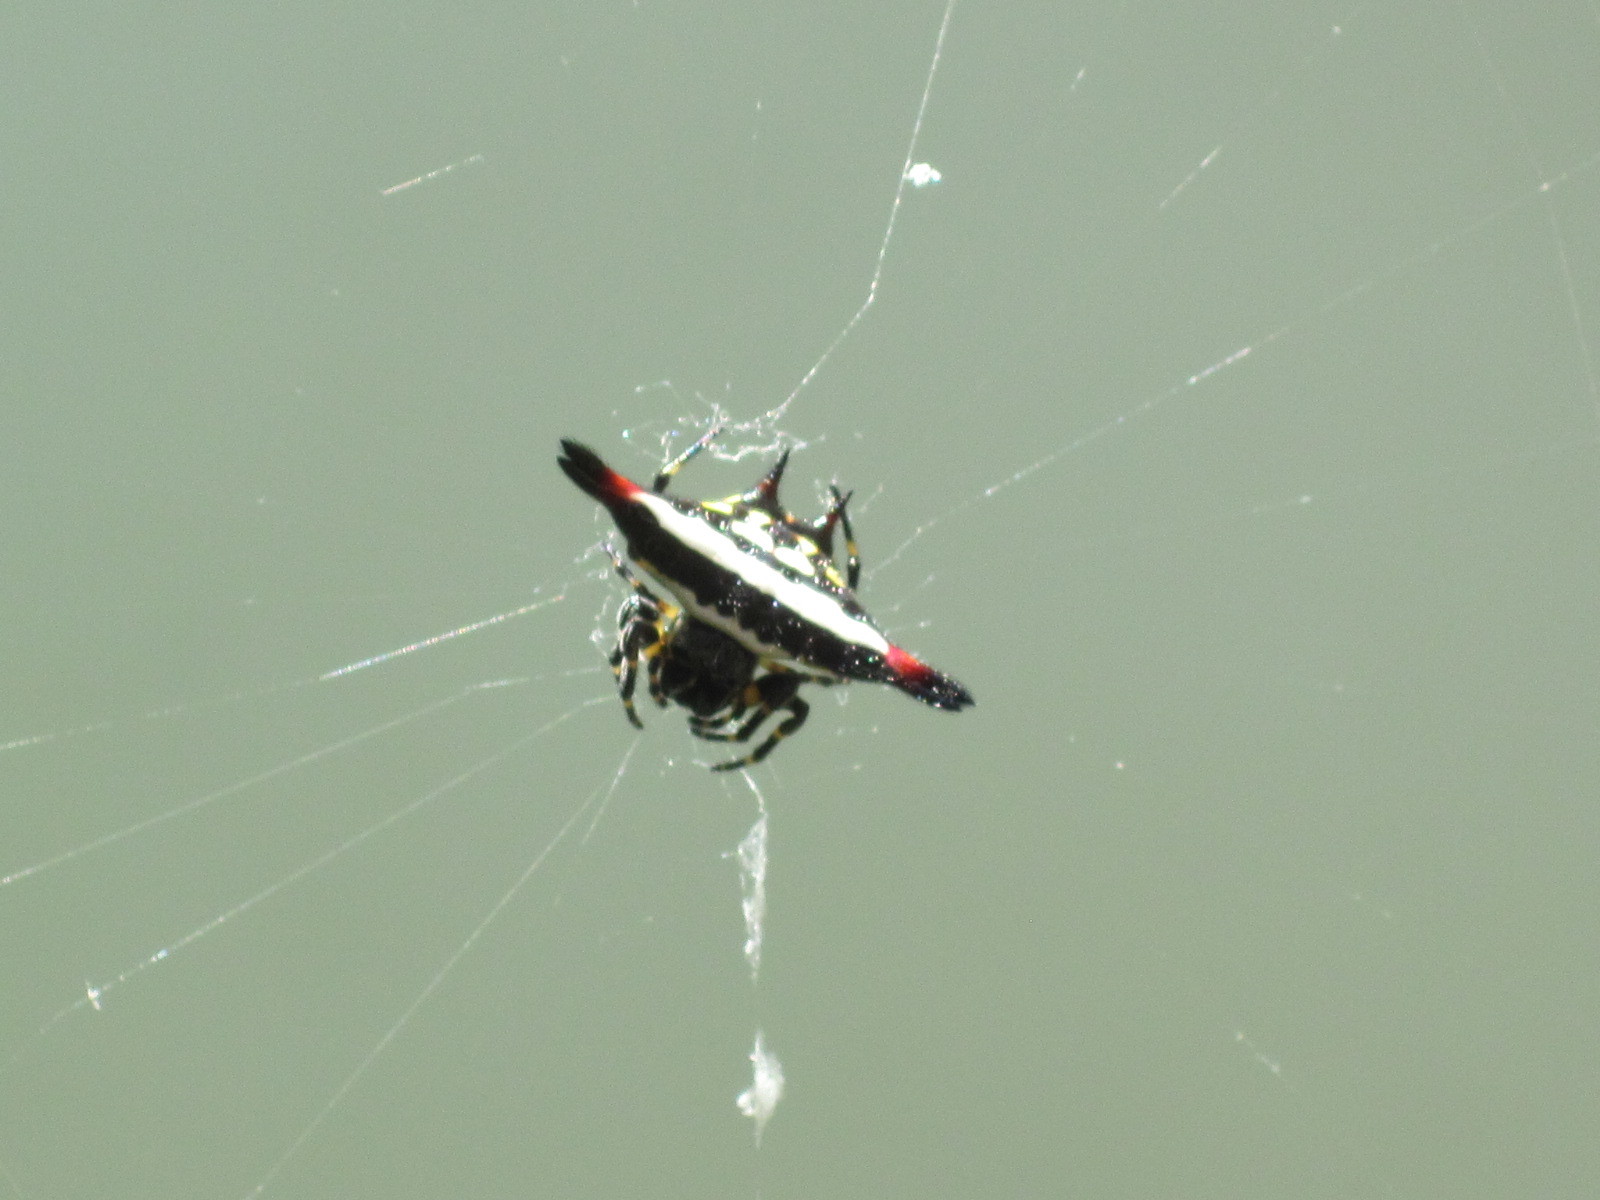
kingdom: Animalia
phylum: Arthropoda
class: Arachnida
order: Araneae
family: Araneidae
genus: Gasteracantha
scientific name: Gasteracantha geminata
